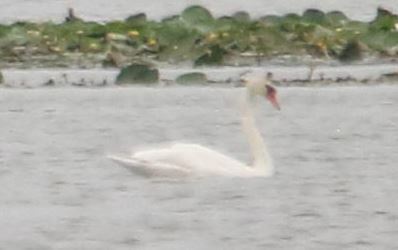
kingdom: Animalia
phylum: Chordata
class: Aves
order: Anseriformes
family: Anatidae
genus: Cygnus
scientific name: Cygnus olor
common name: Mute swan
